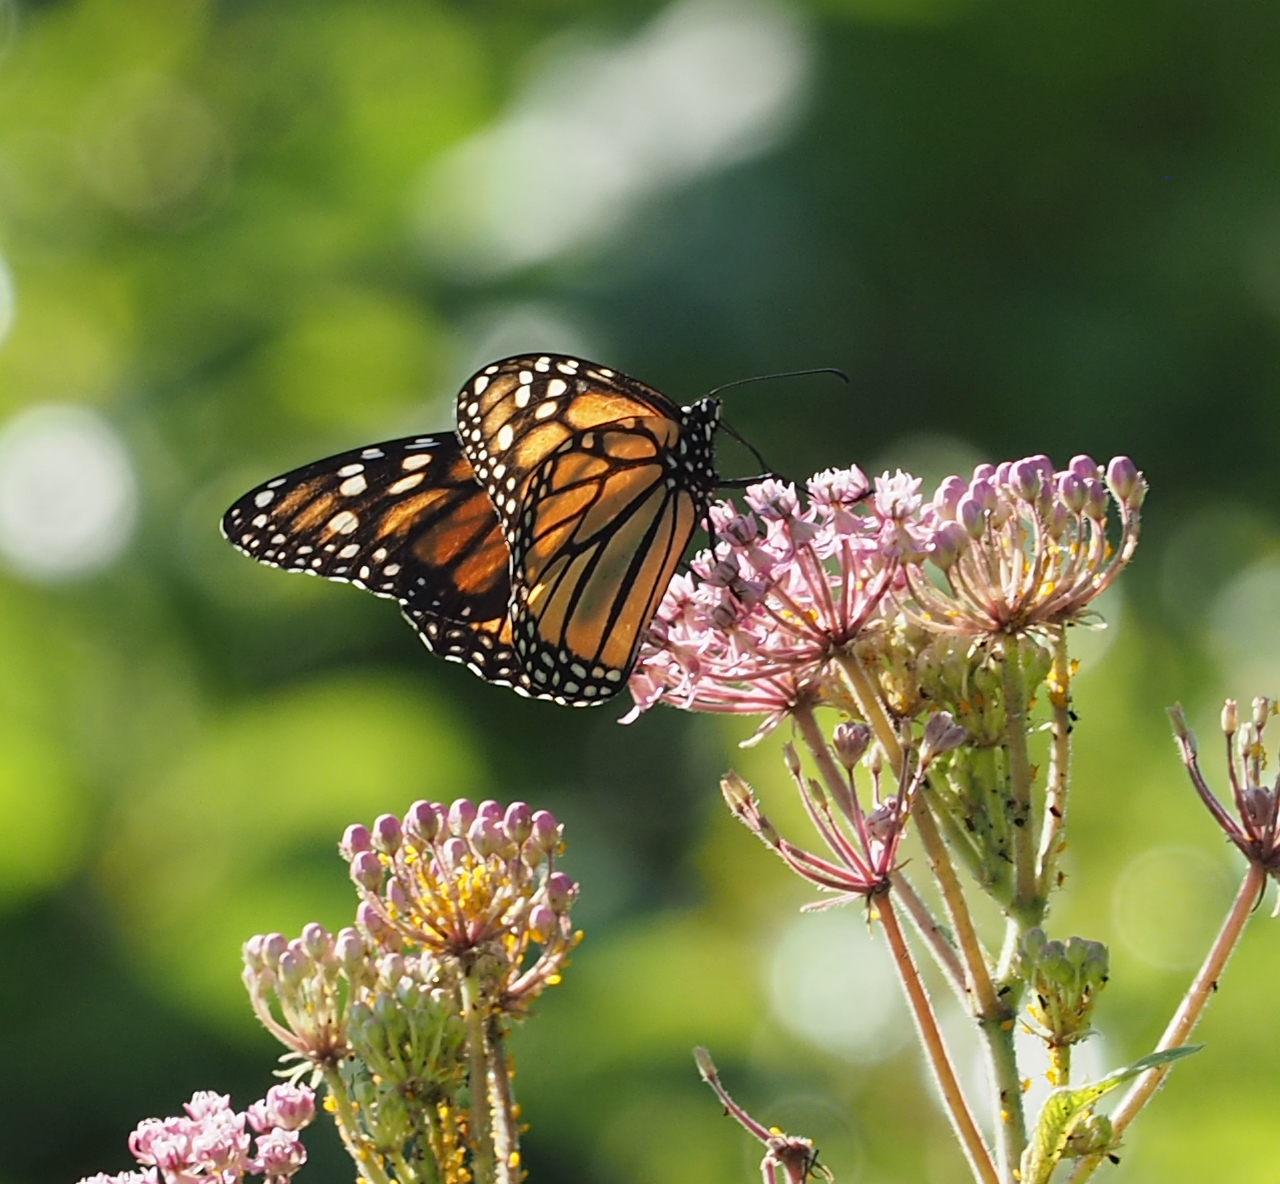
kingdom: Animalia
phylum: Arthropoda
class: Insecta
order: Lepidoptera
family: Nymphalidae
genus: Danaus
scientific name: Danaus plexippus
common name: Monarch
